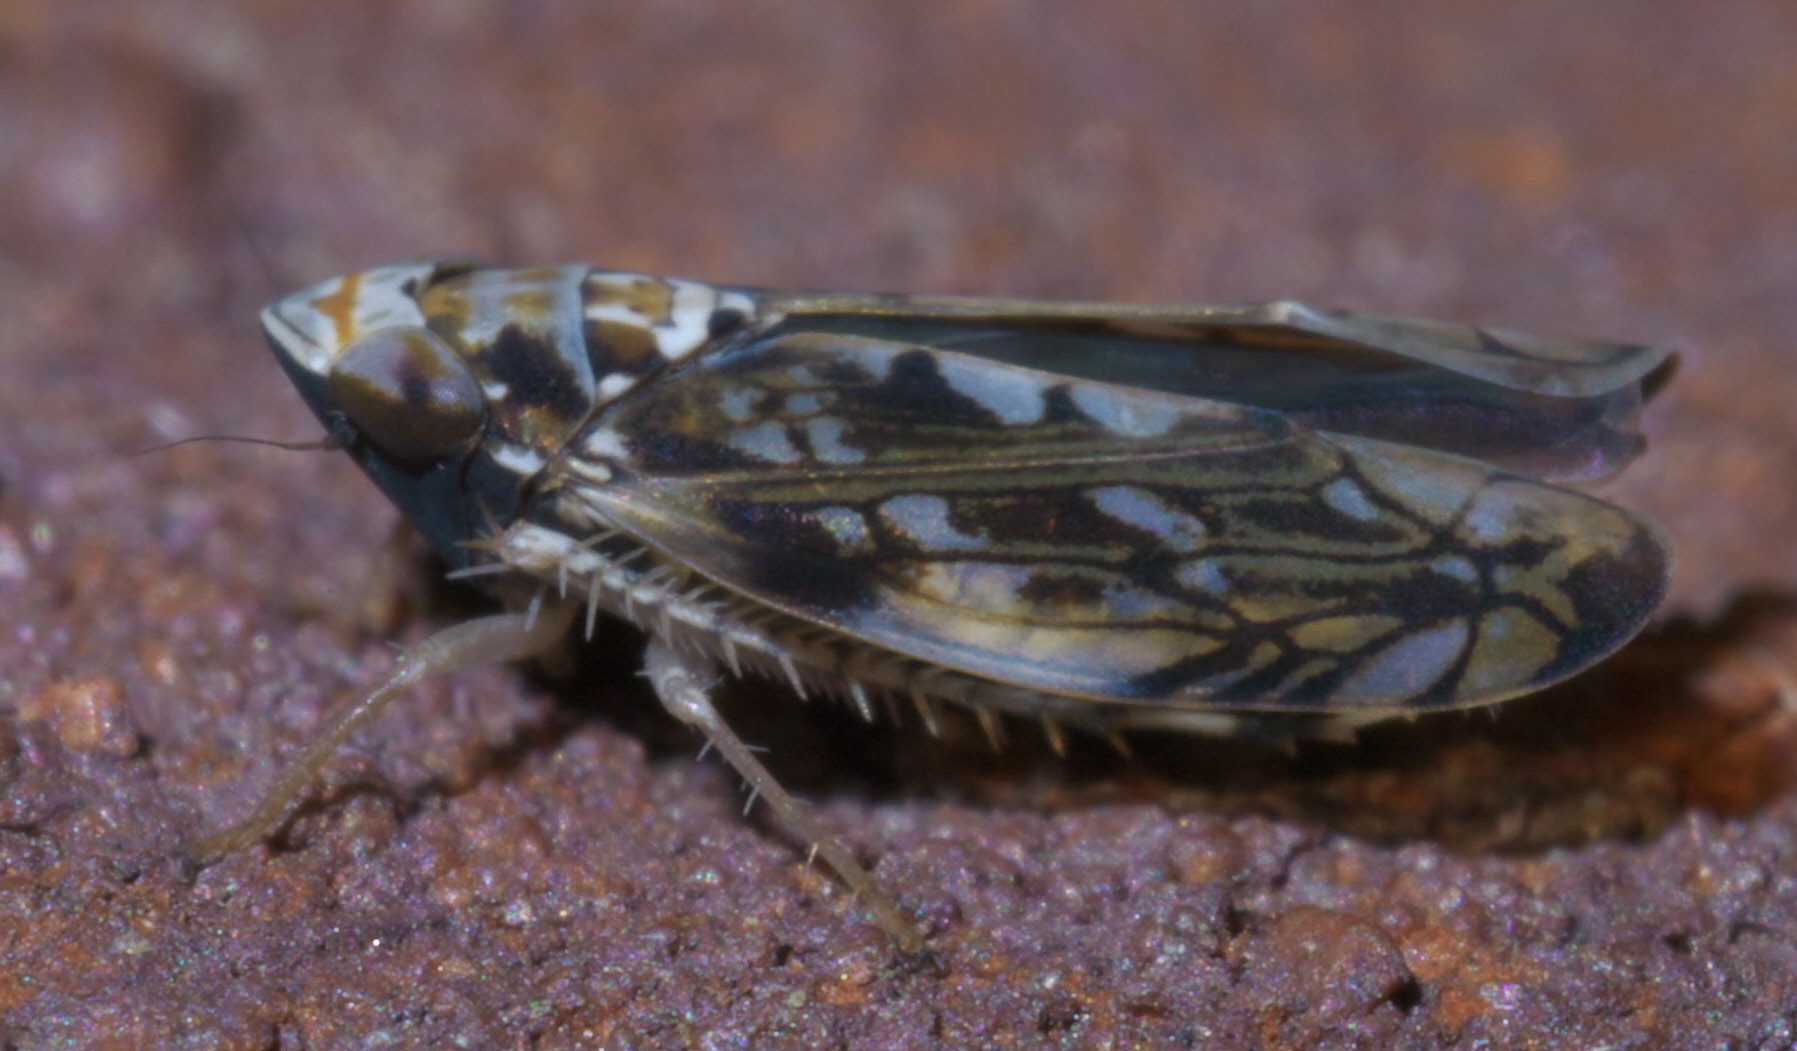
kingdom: Animalia
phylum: Arthropoda
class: Insecta
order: Hemiptera
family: Cicadellidae
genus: Scaphoideus
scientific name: Scaphoideus melanotus
